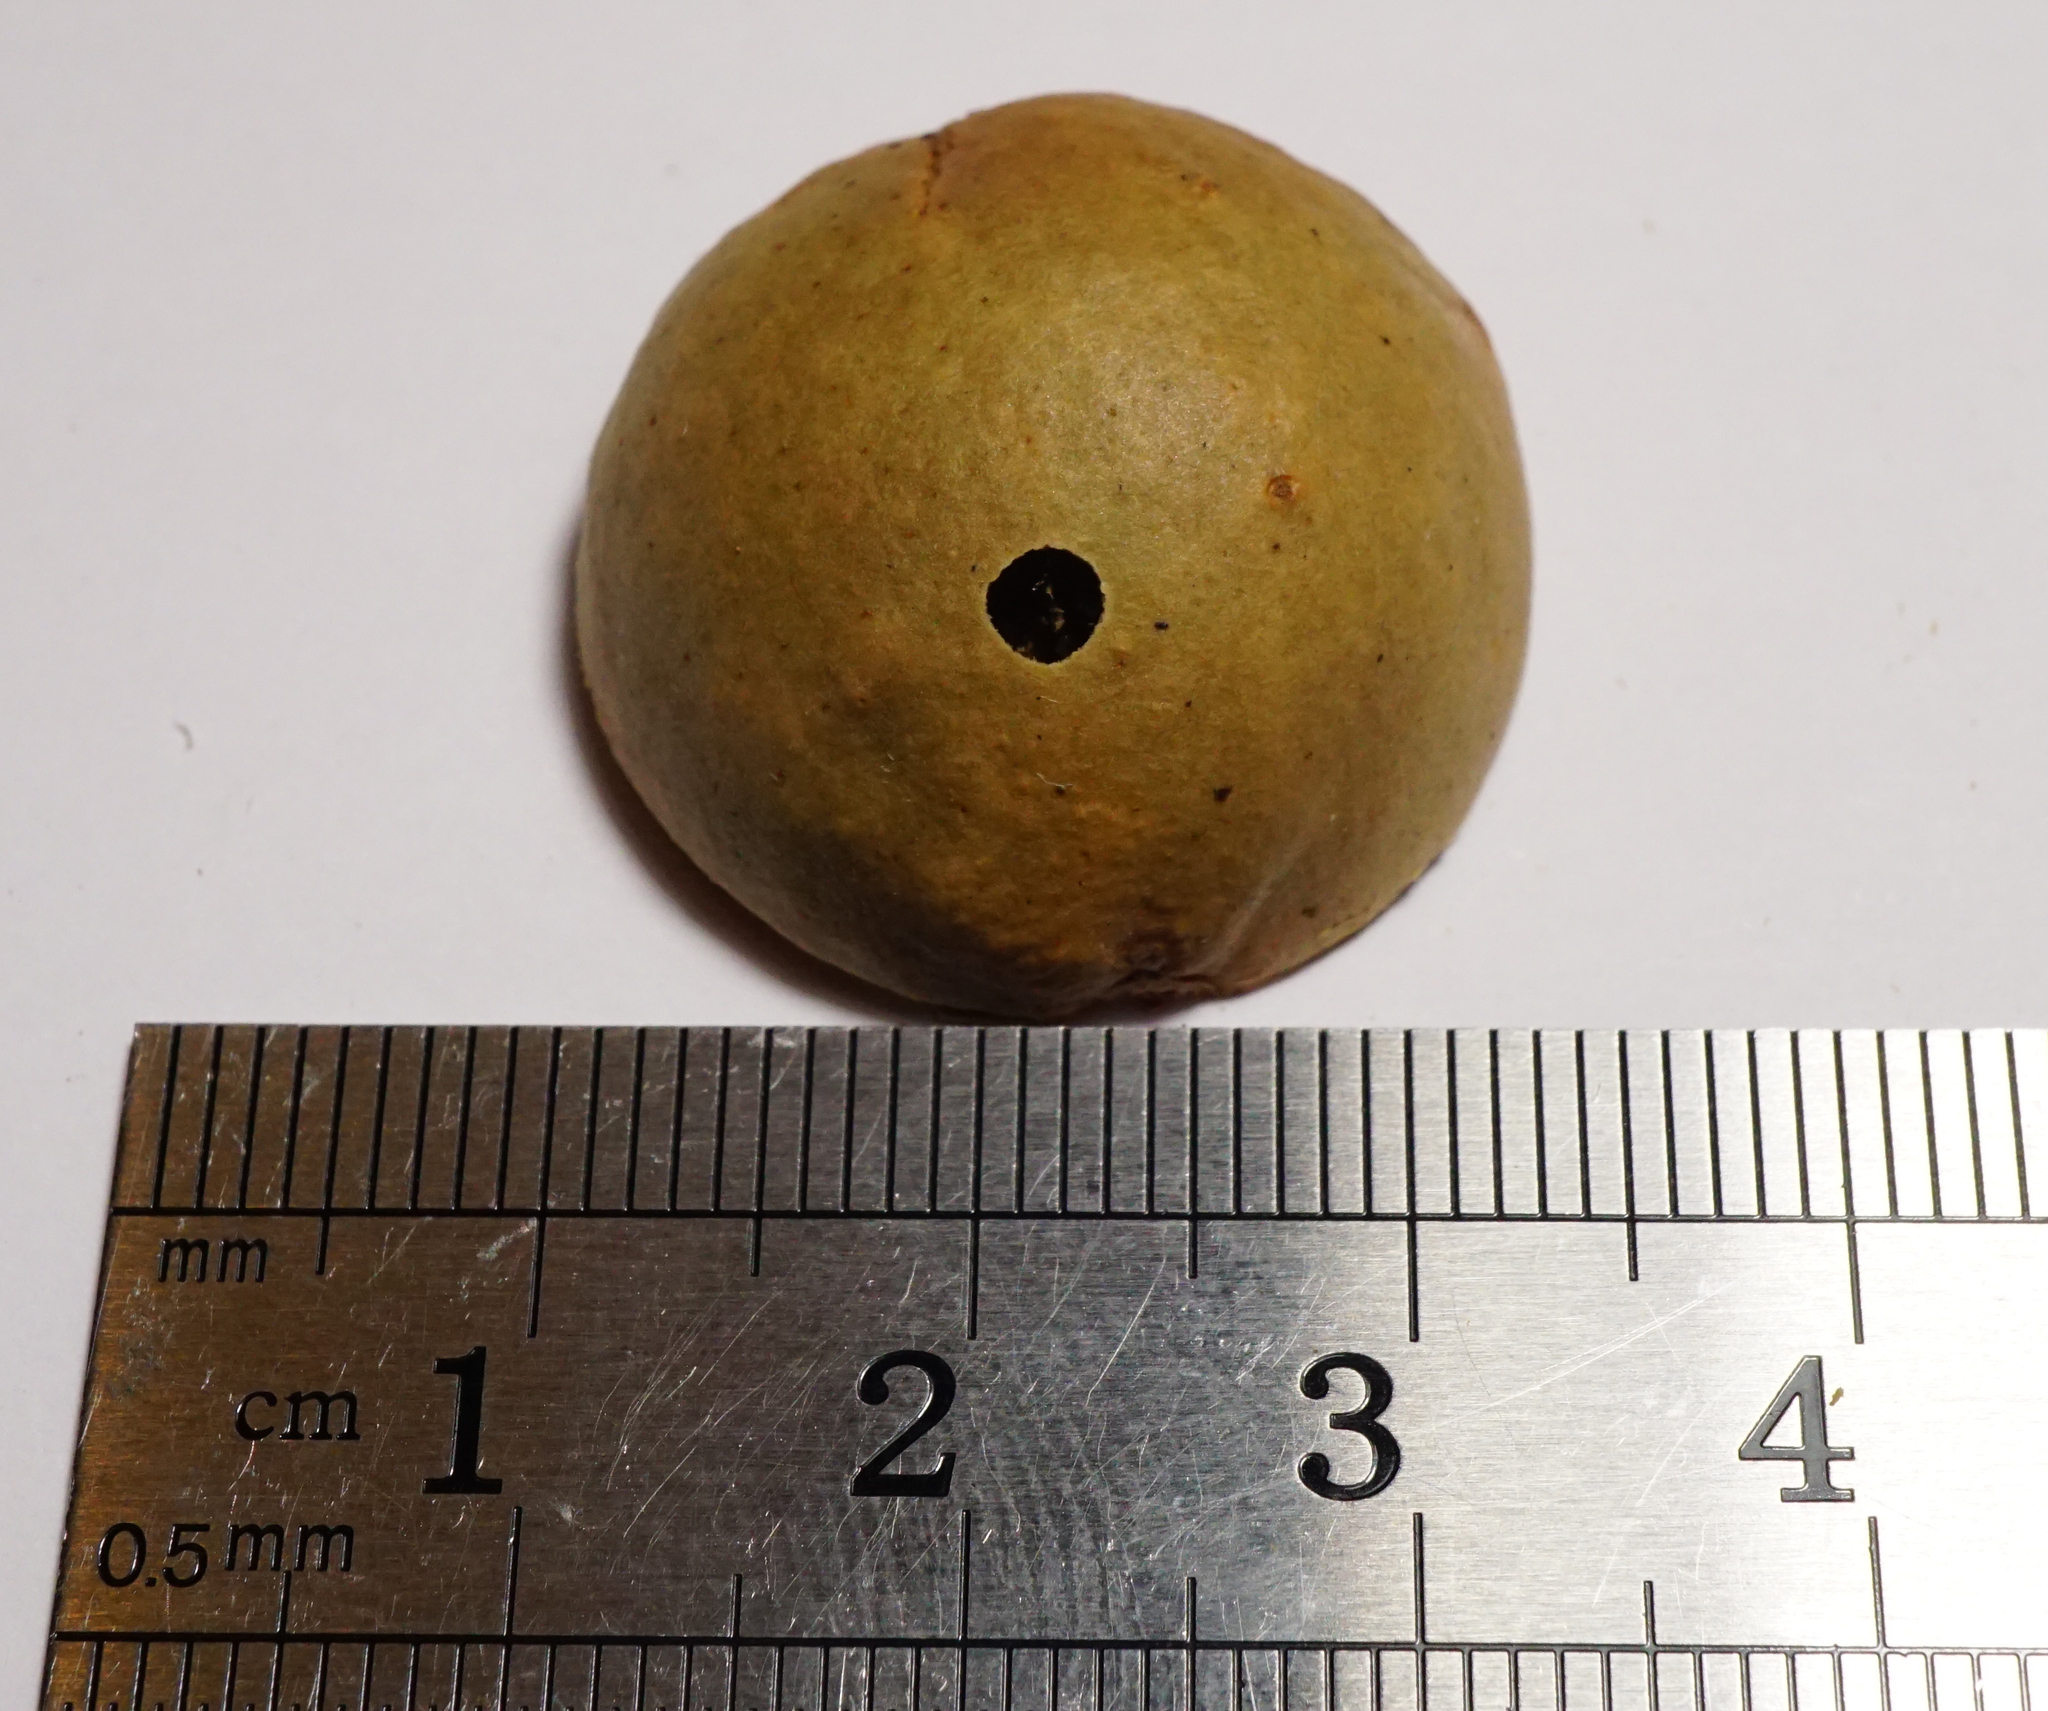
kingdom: Animalia
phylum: Arthropoda
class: Insecta
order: Hymenoptera
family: Cynipidae
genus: Andricus
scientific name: Andricus kollari
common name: Marble gall
